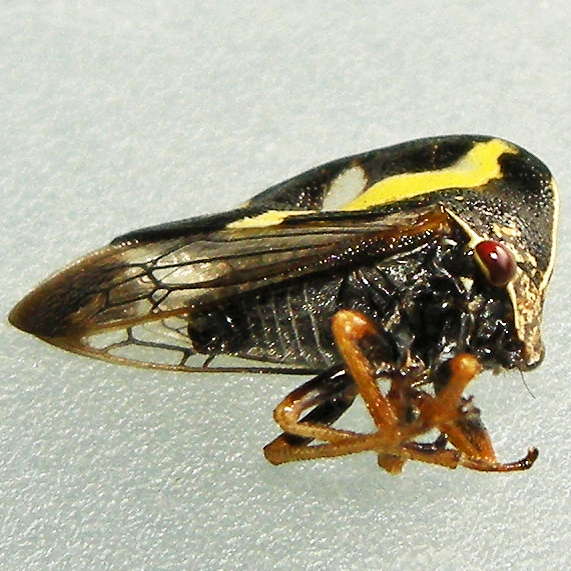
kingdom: Animalia
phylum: Arthropoda
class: Insecta
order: Hemiptera
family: Membracidae
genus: Smilia
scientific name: Smilia camelus
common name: Camel treehopper
